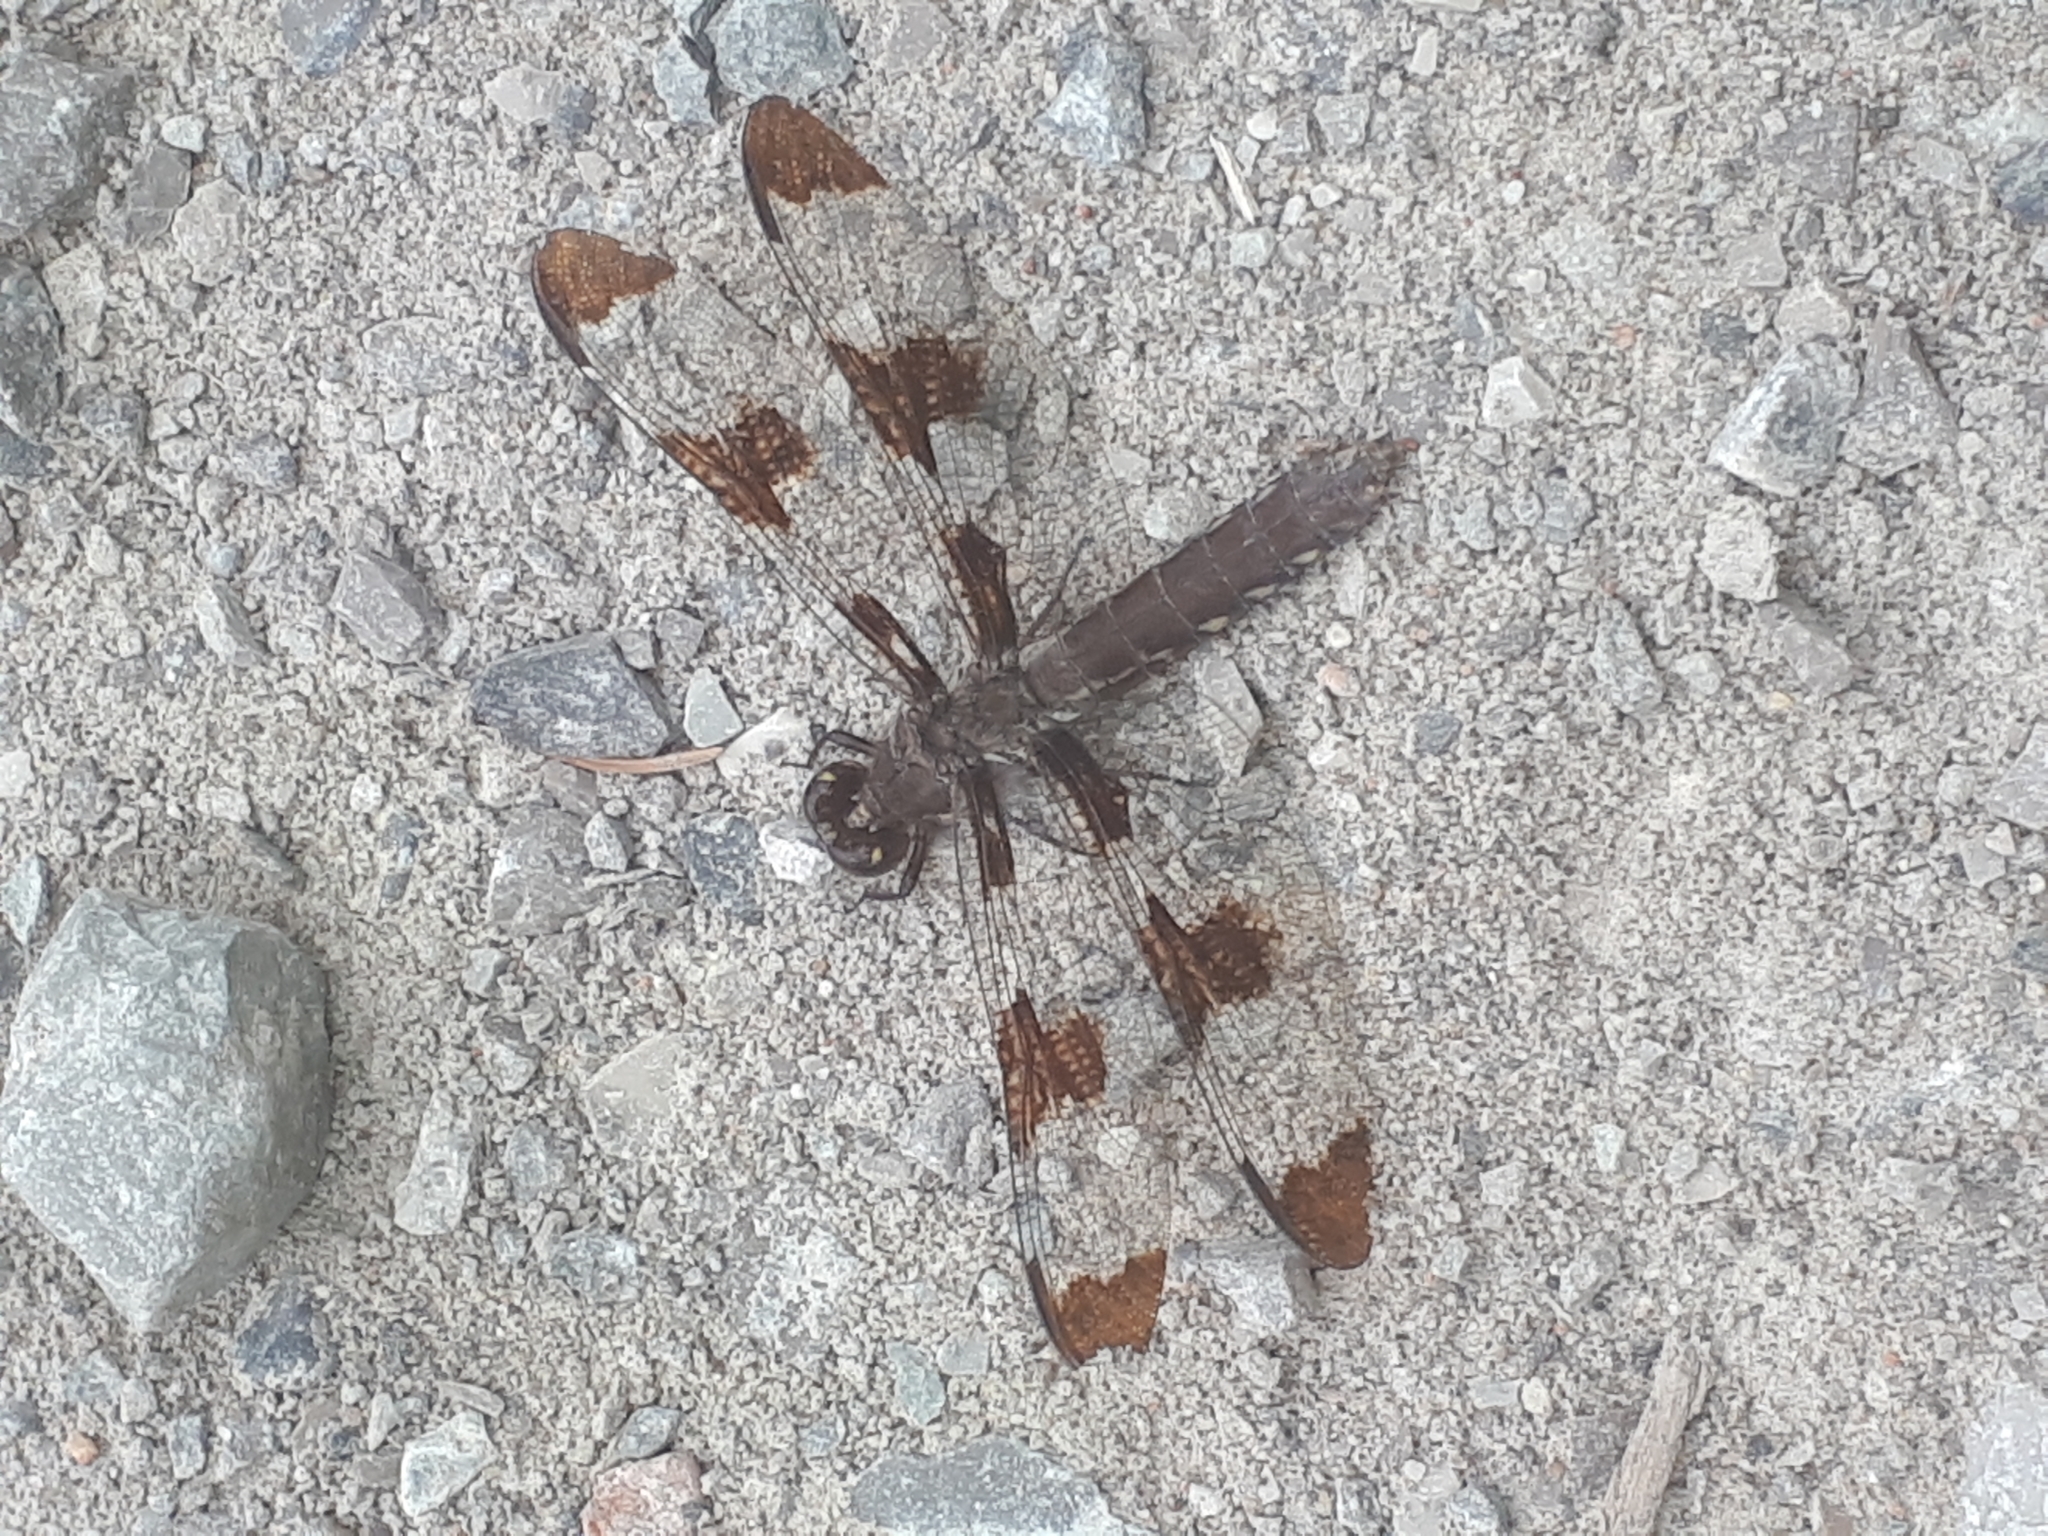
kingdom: Animalia
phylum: Arthropoda
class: Insecta
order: Odonata
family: Libellulidae
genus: Plathemis
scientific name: Plathemis lydia
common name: Common whitetail
